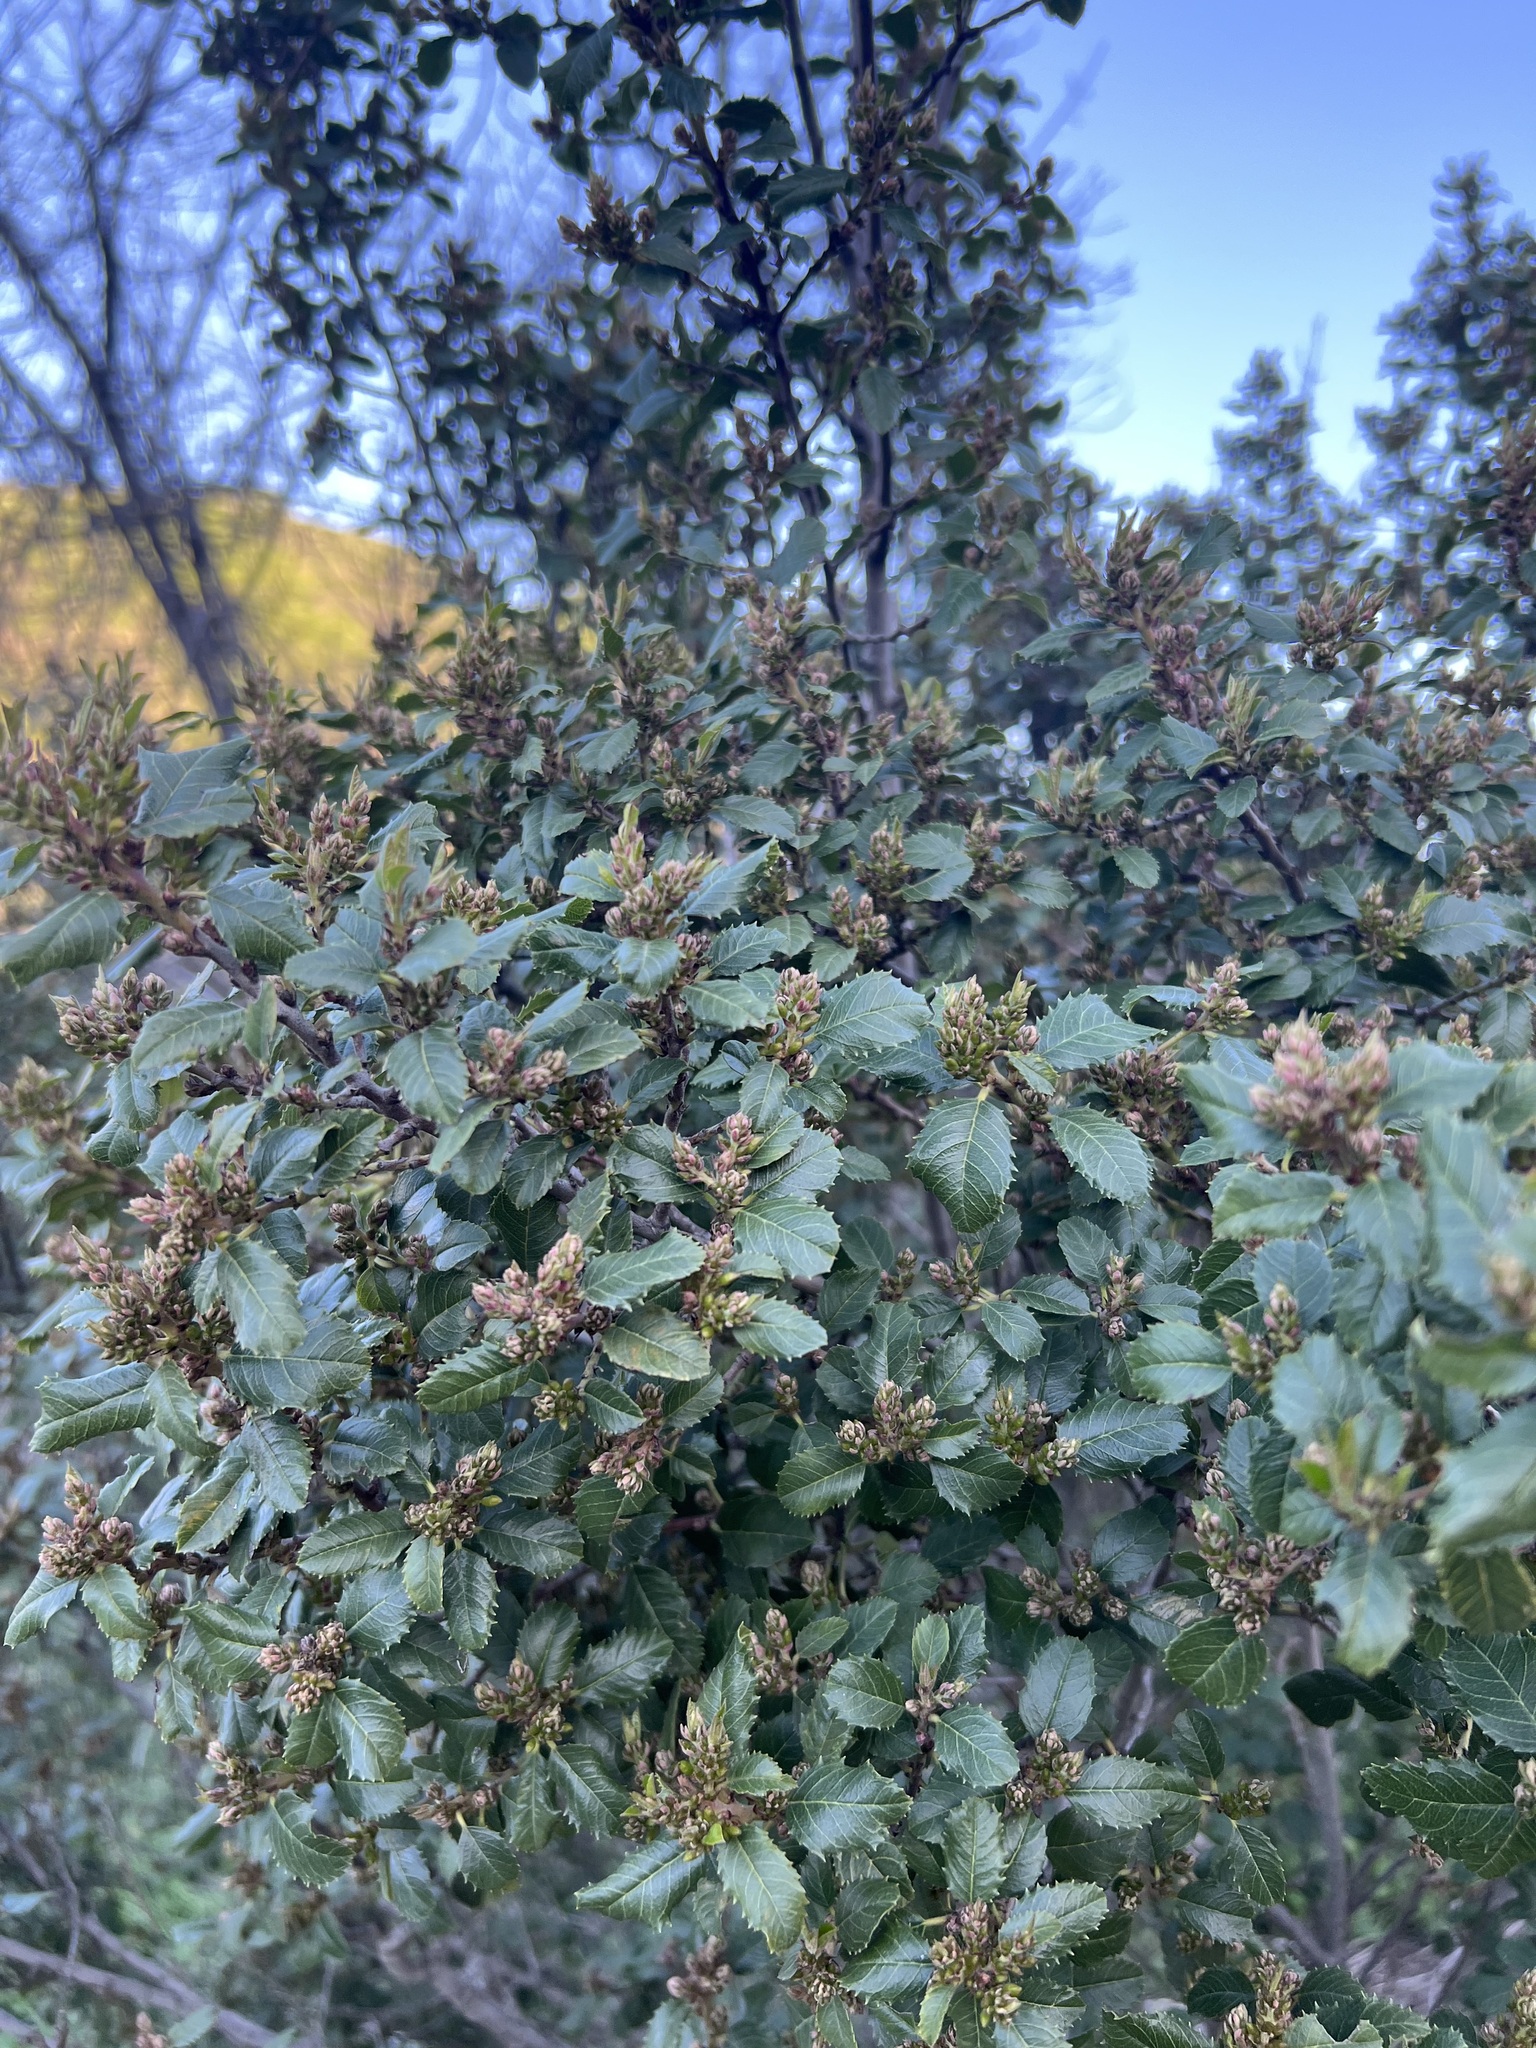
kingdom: Plantae
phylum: Tracheophyta
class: Magnoliopsida
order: Rosales
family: Rhamnaceae
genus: Endotropis
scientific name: Endotropis crocea
